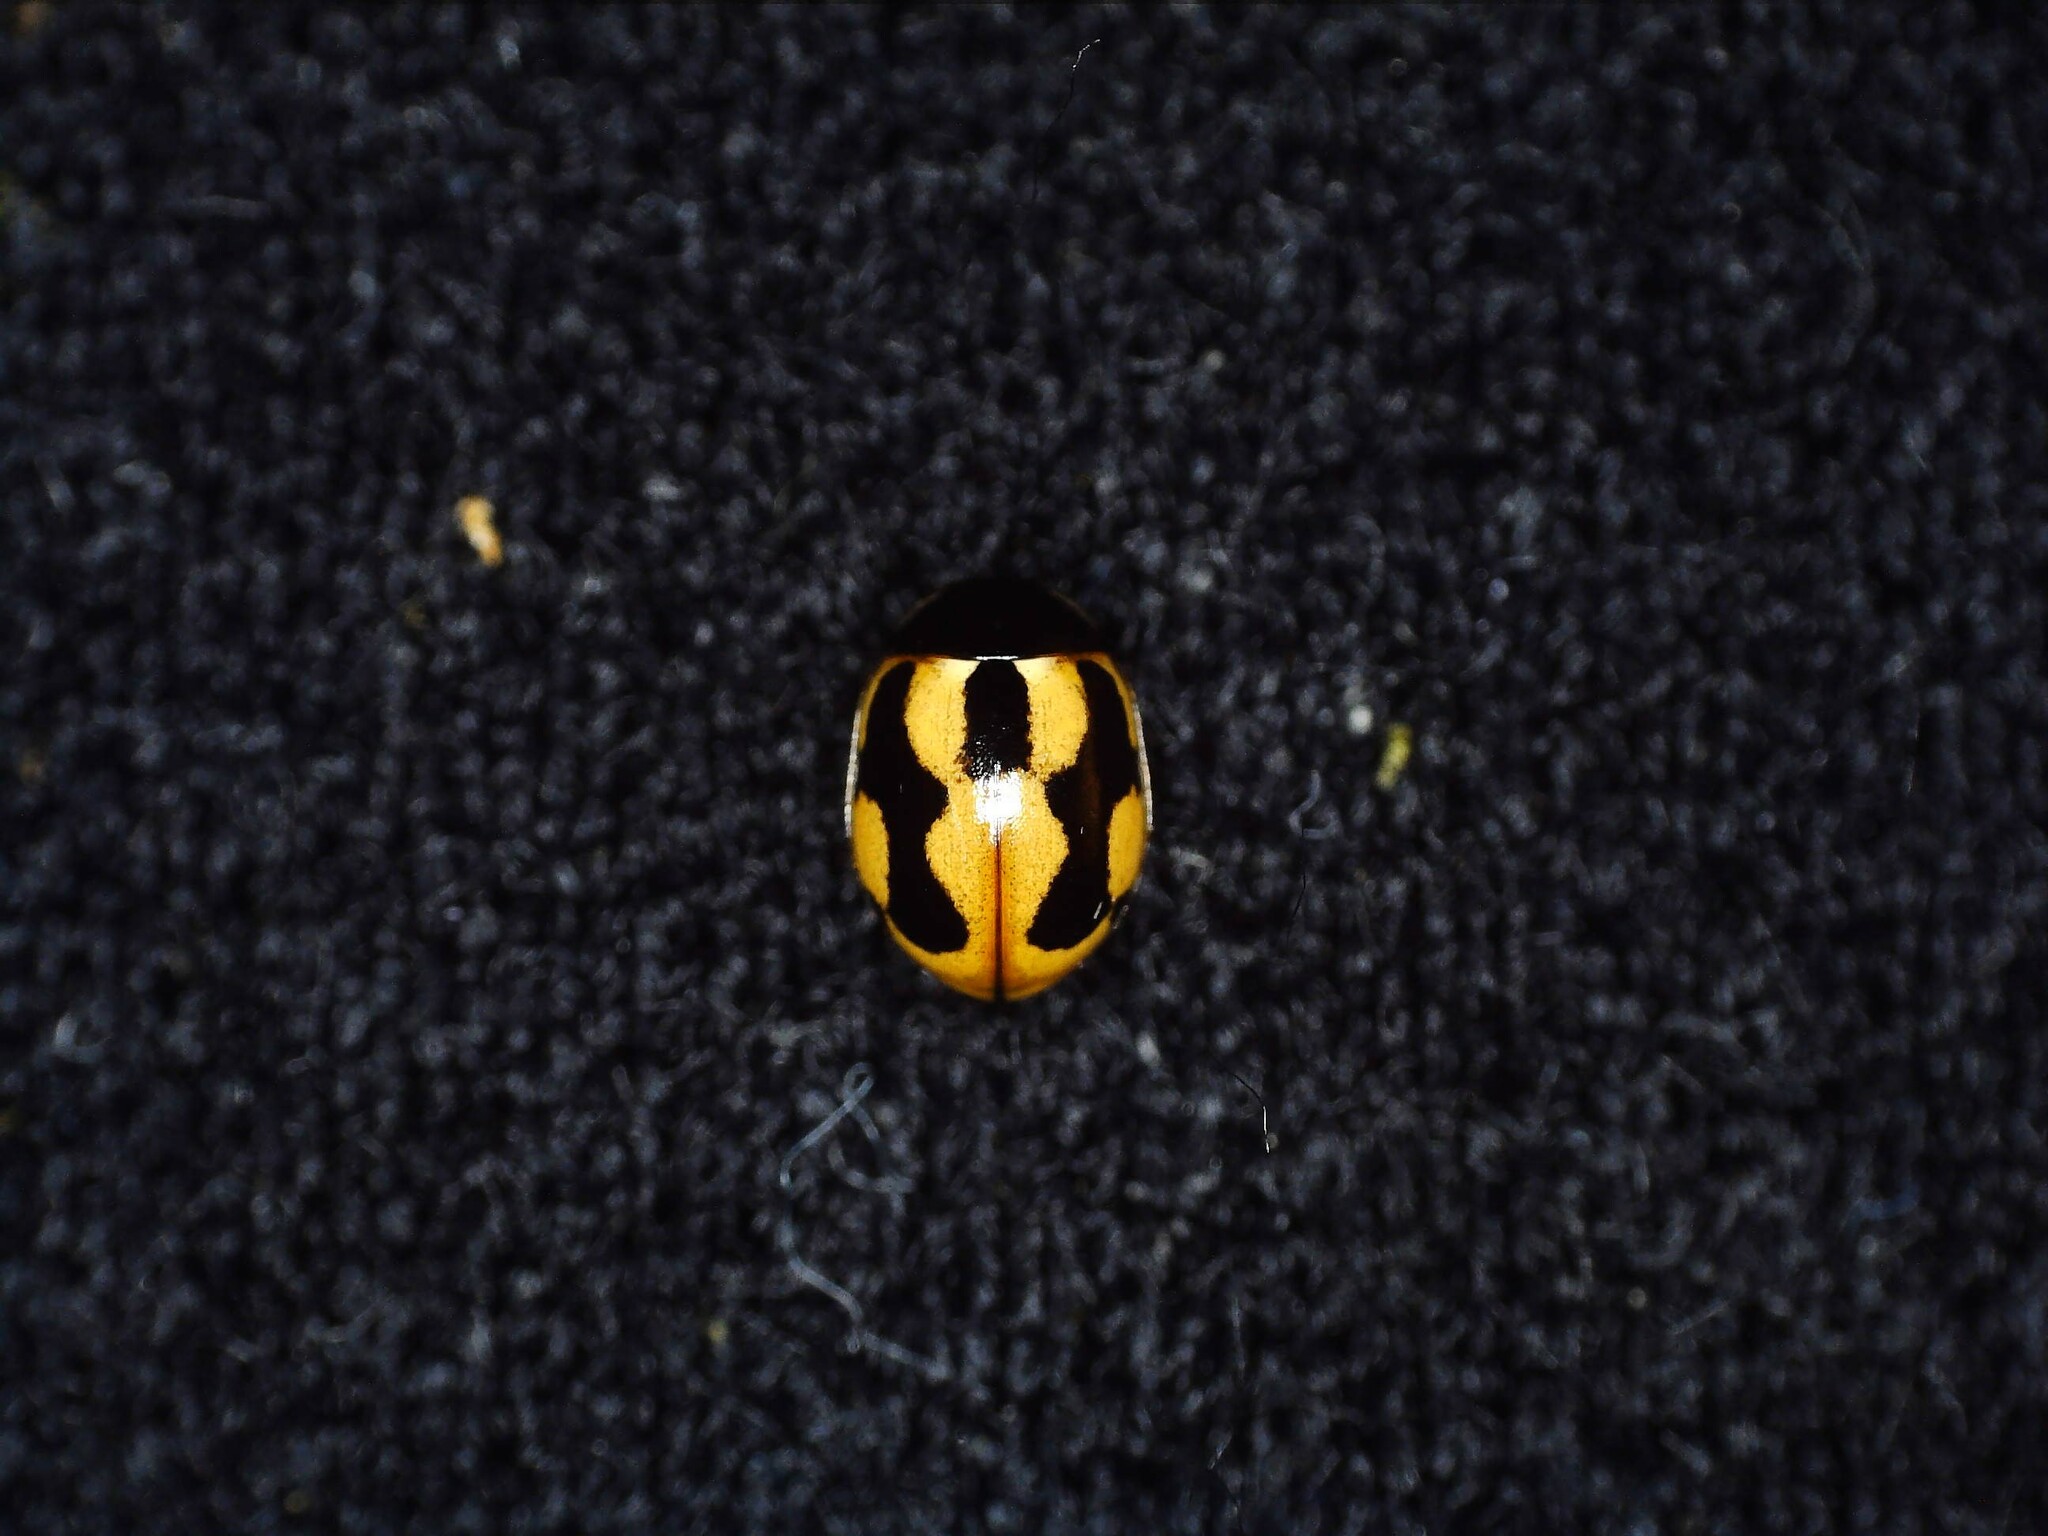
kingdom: Animalia
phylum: Arthropoda
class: Insecta
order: Coleoptera
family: Coccinellidae
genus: Coccinella
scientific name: Coccinella hieroglyphica
